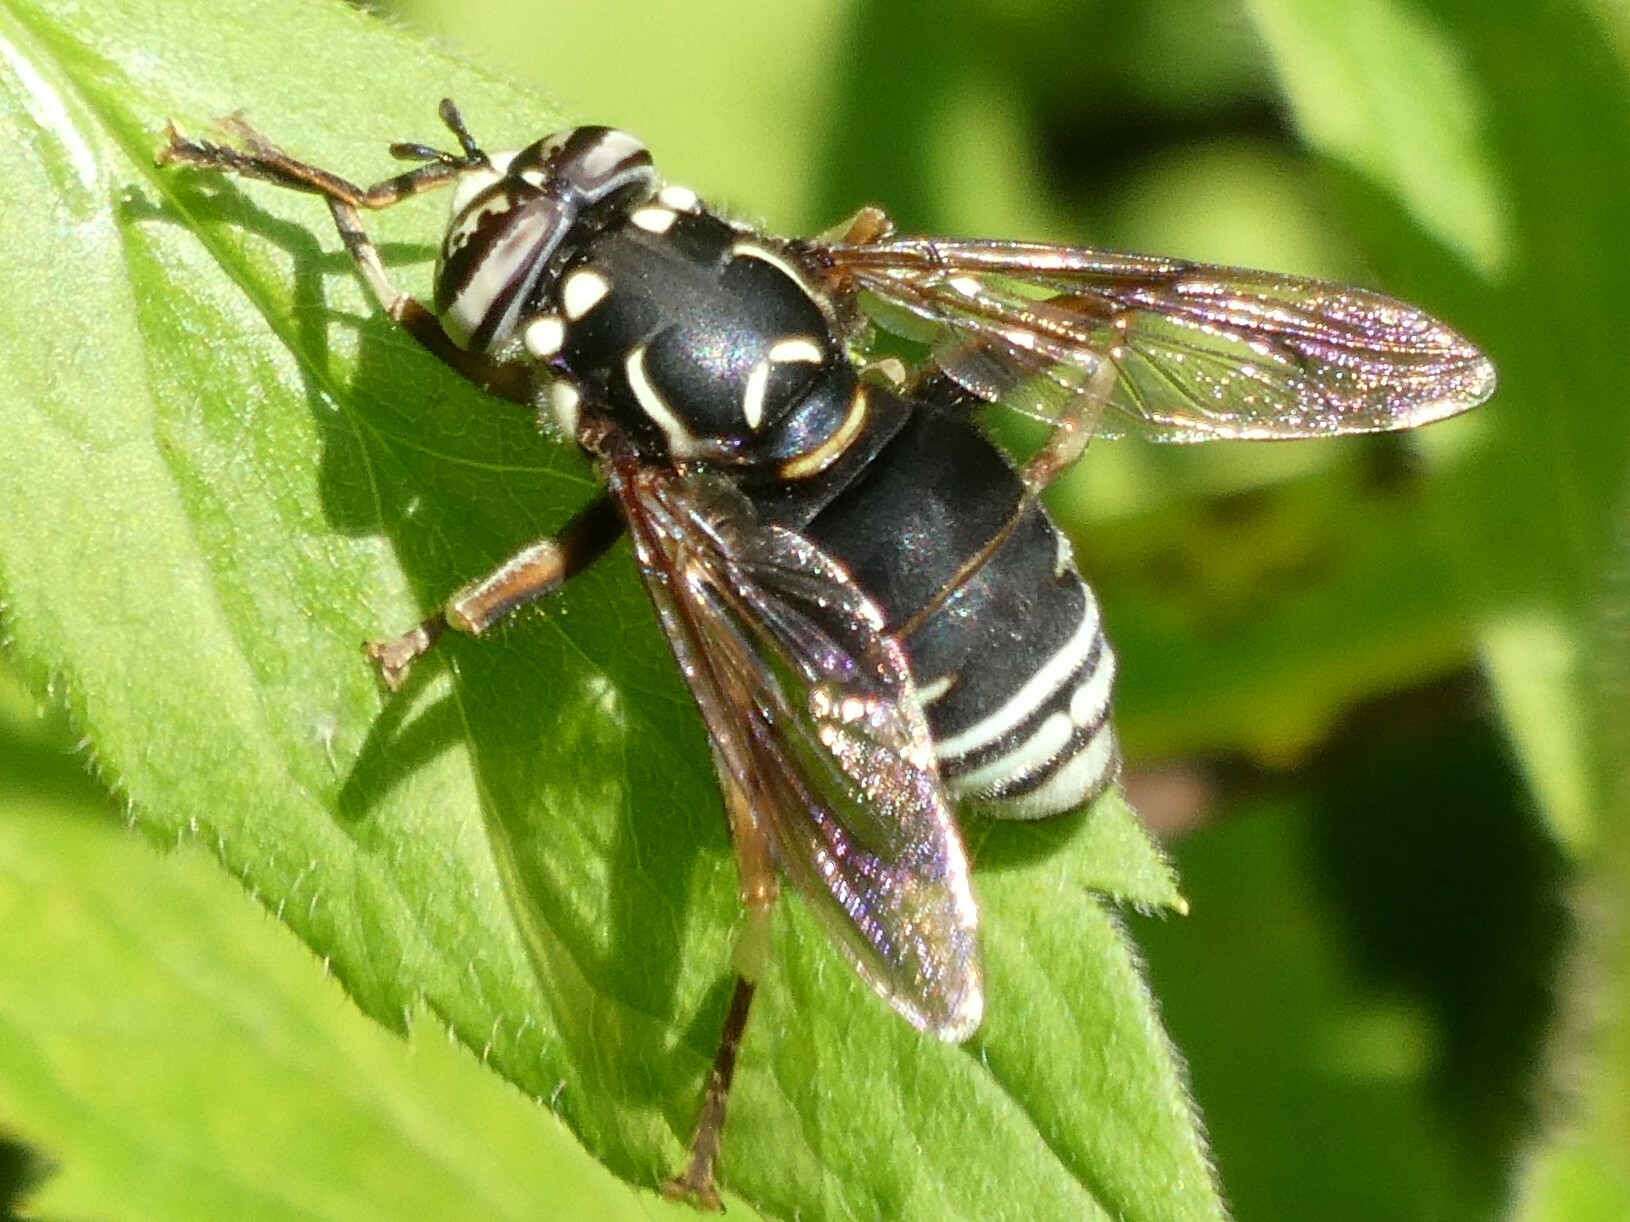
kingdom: Animalia
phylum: Arthropoda
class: Insecta
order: Diptera
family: Syrphidae
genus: Spilomyia
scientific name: Spilomyia fusca
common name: Bald-faced hornet fly
